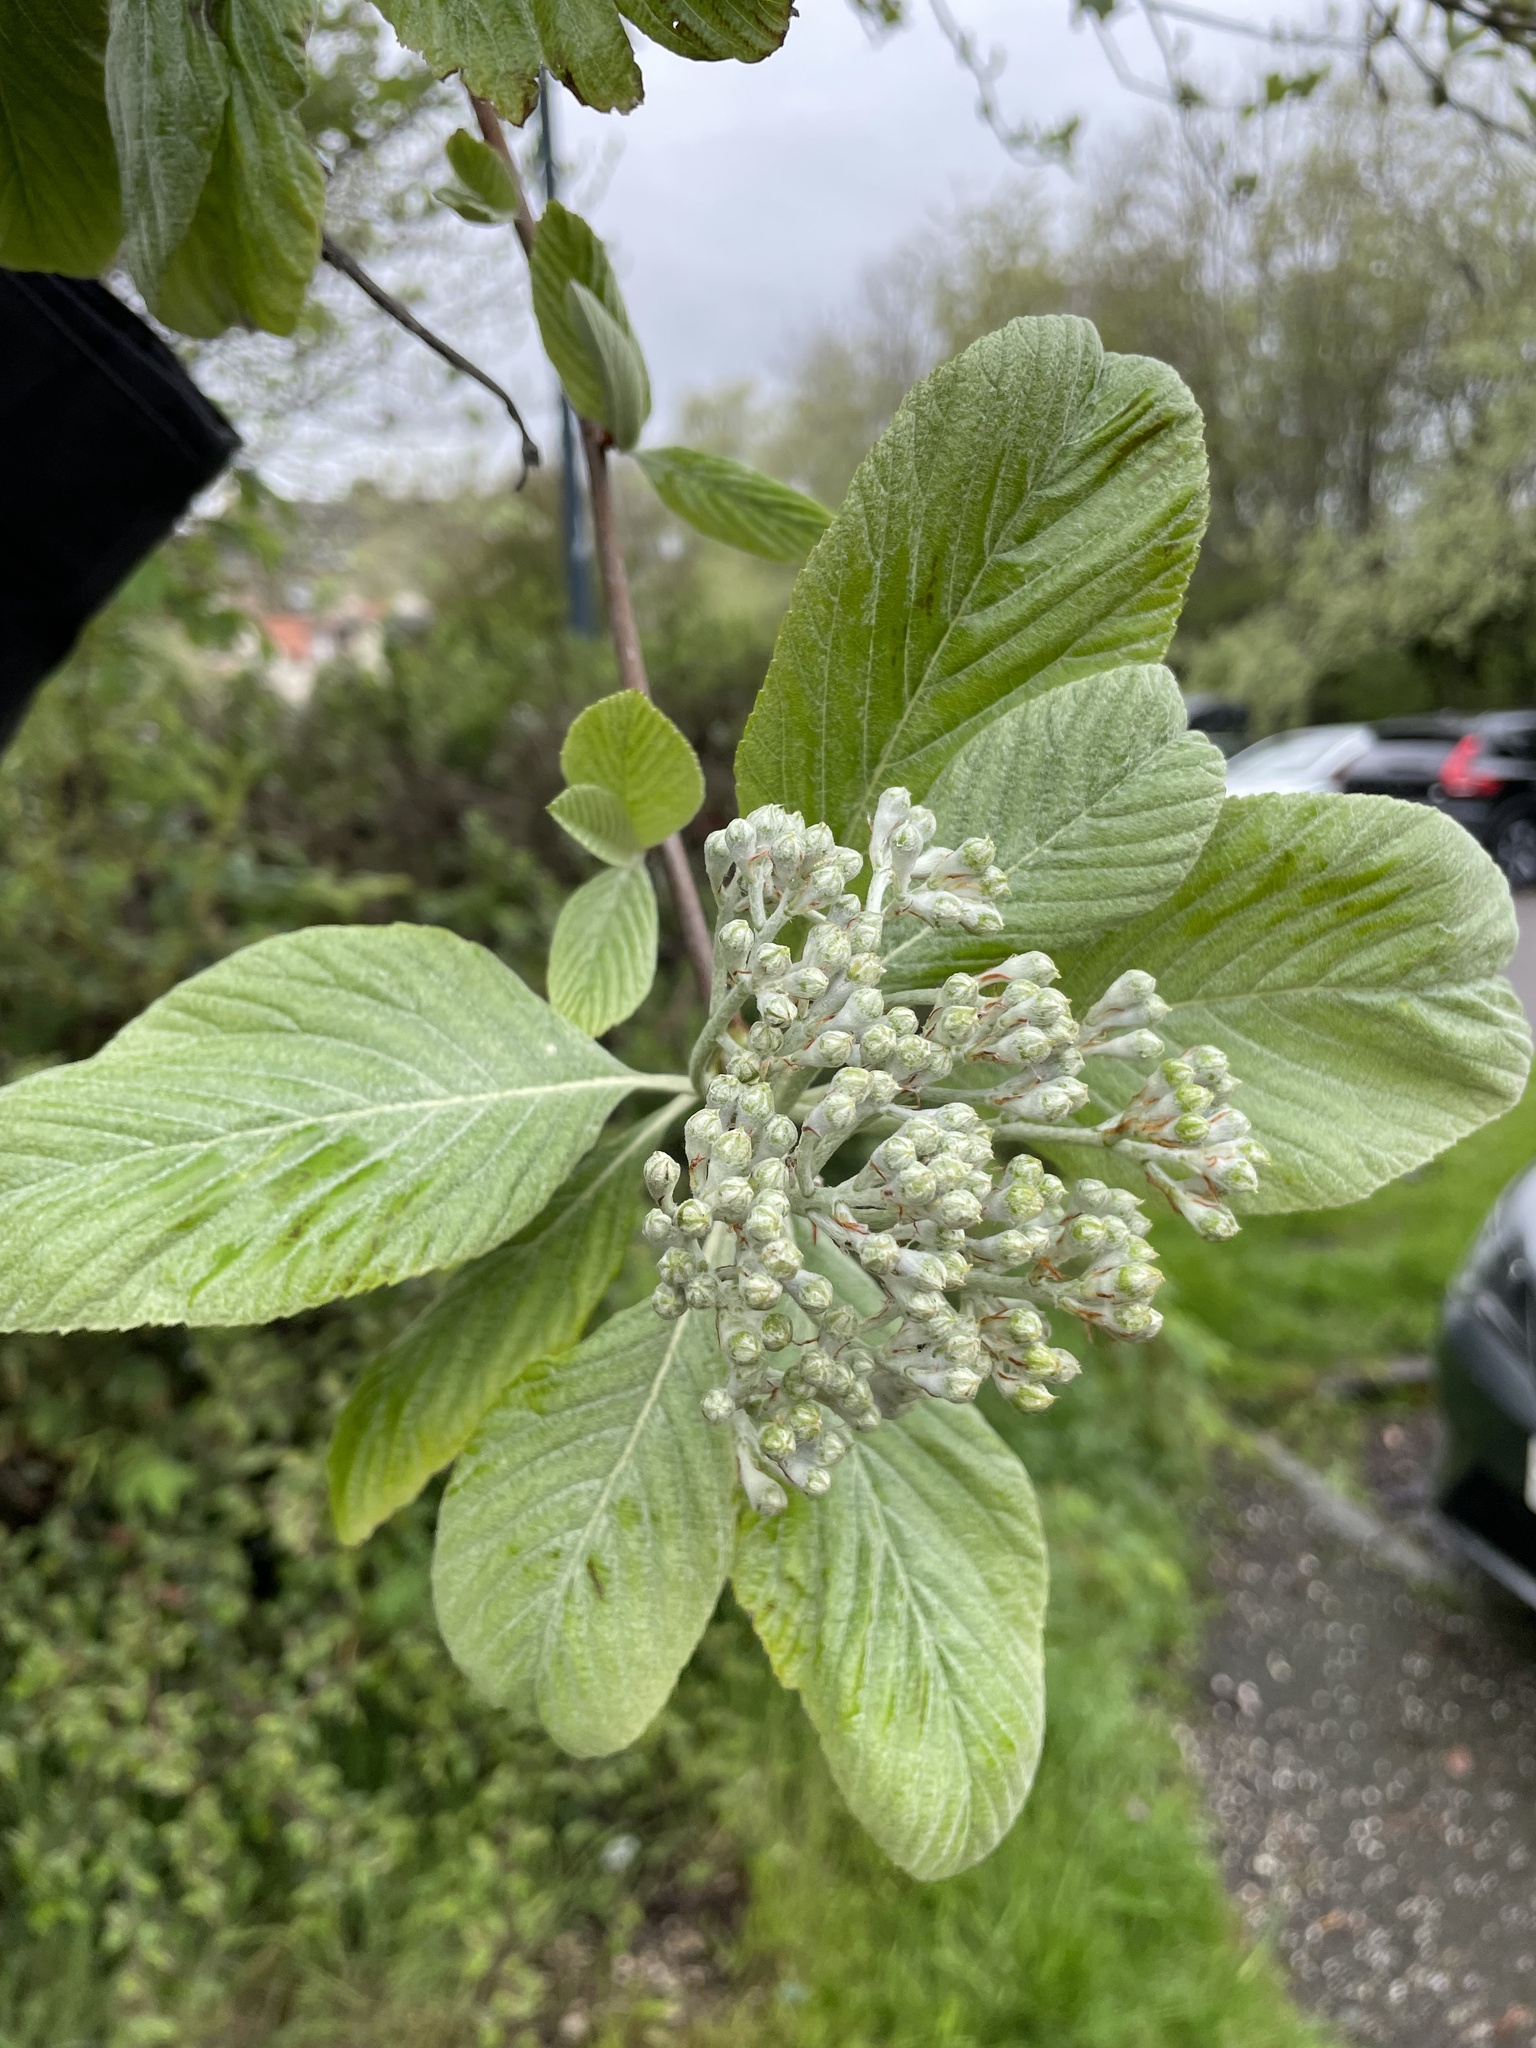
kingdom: Plantae
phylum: Tracheophyta
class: Magnoliopsida
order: Rosales
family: Rosaceae
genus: Aria
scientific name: Aria edulis
